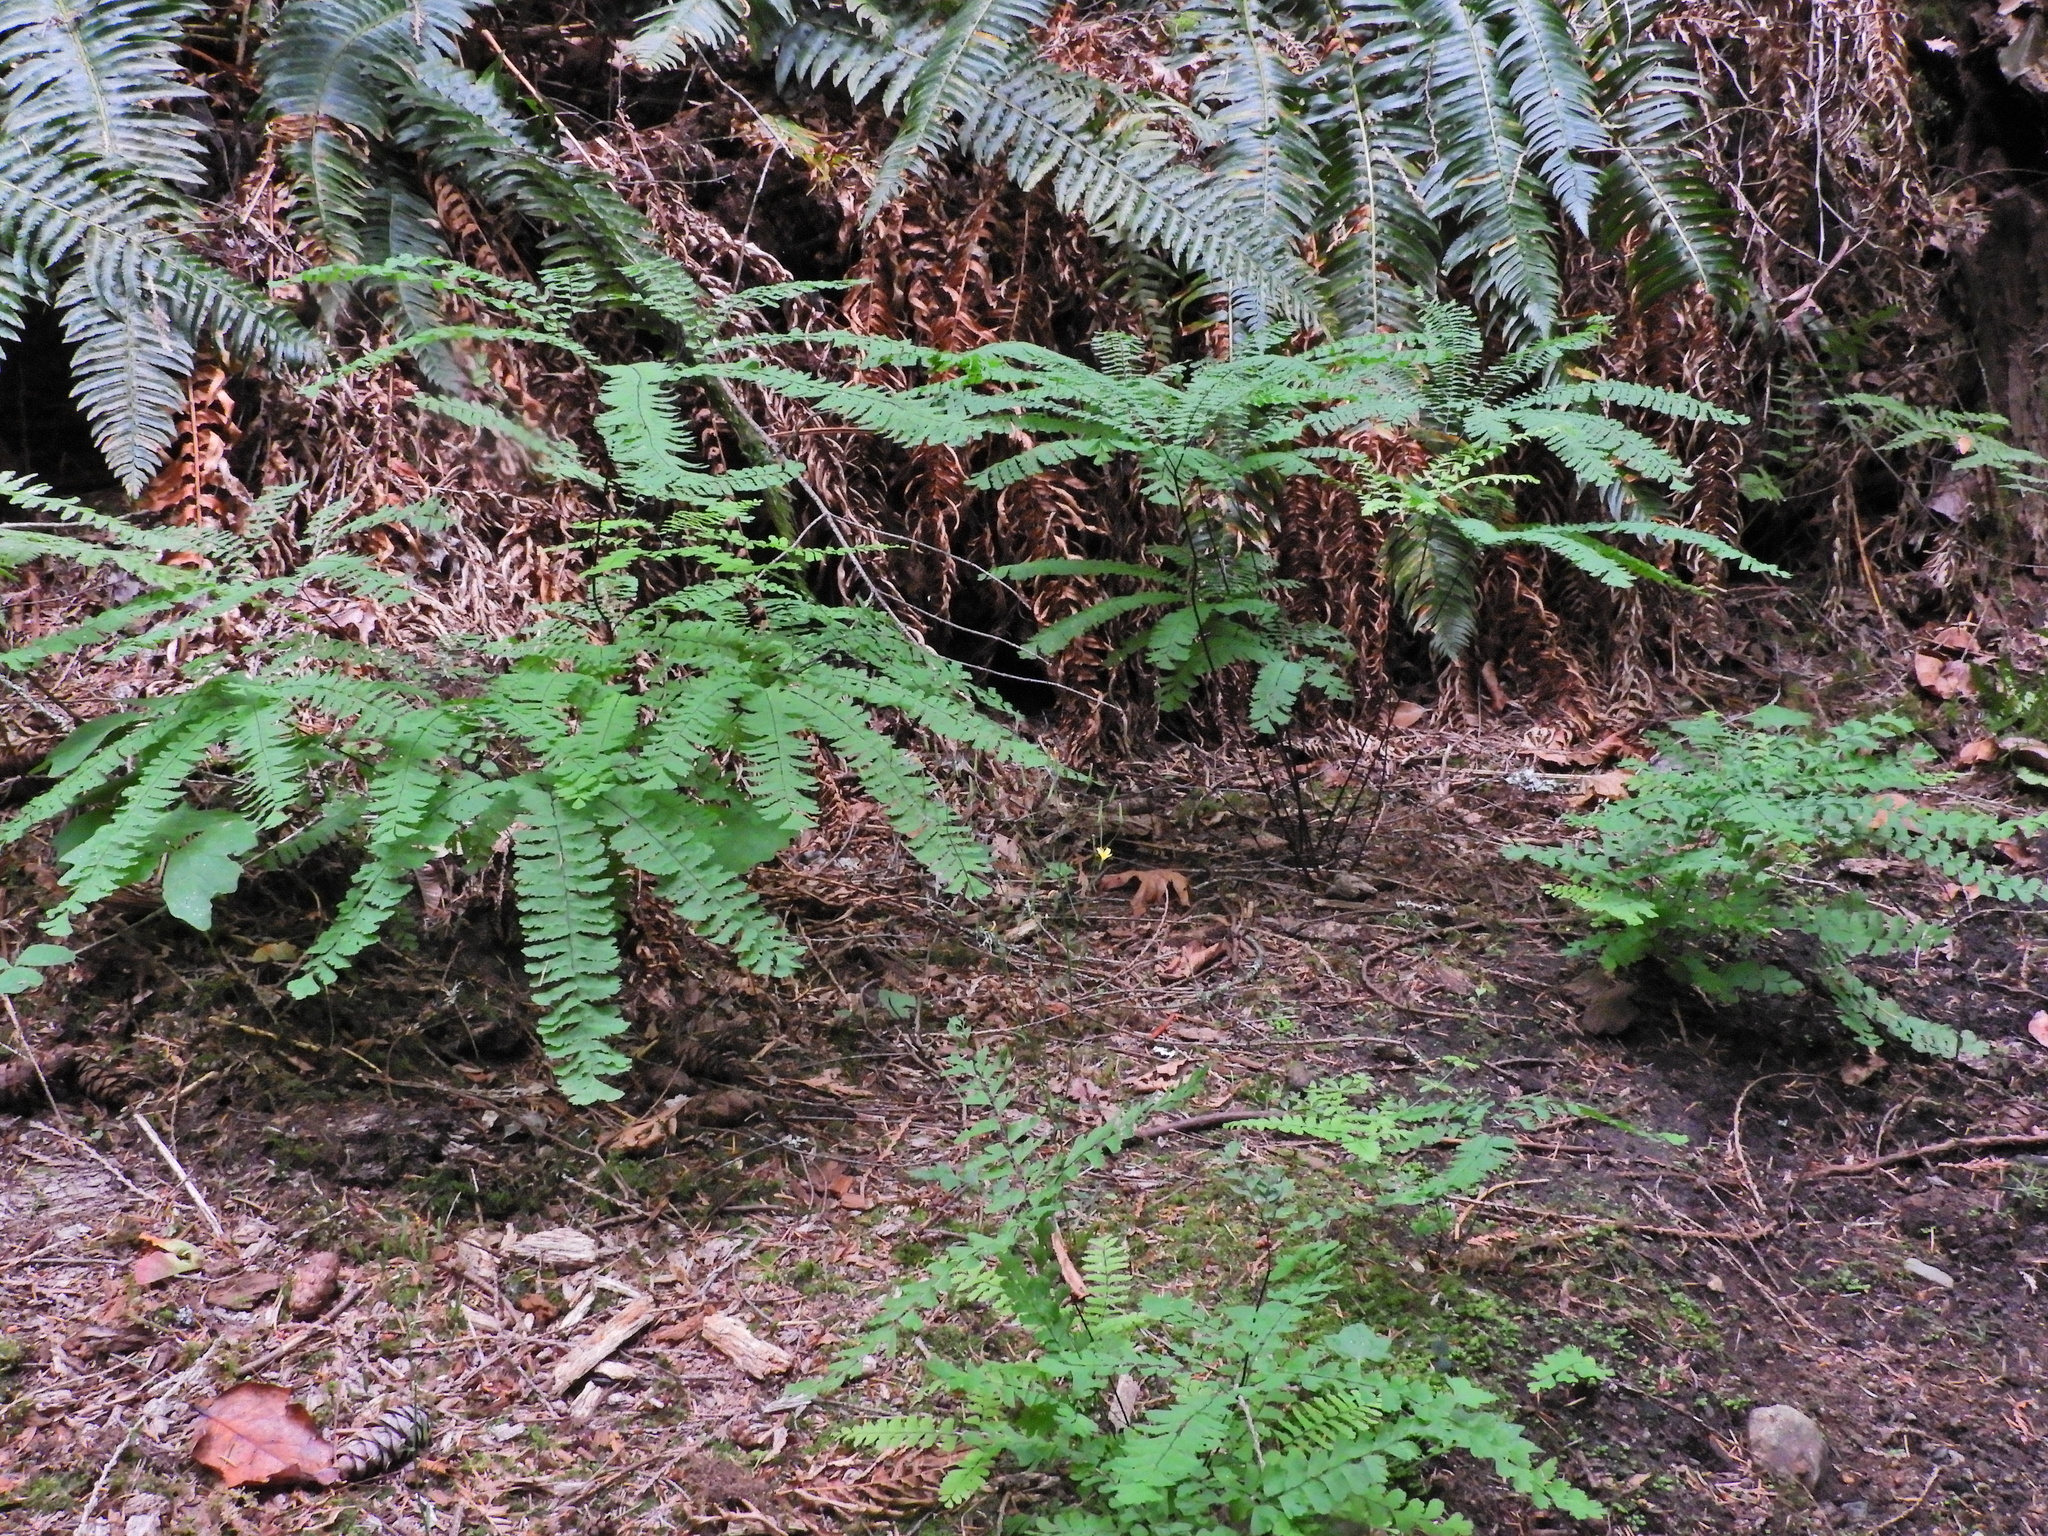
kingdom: Plantae
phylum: Tracheophyta
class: Polypodiopsida
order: Polypodiales
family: Pteridaceae
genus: Adiantum
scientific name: Adiantum aleuticum
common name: Aleutian maidenhair fern
